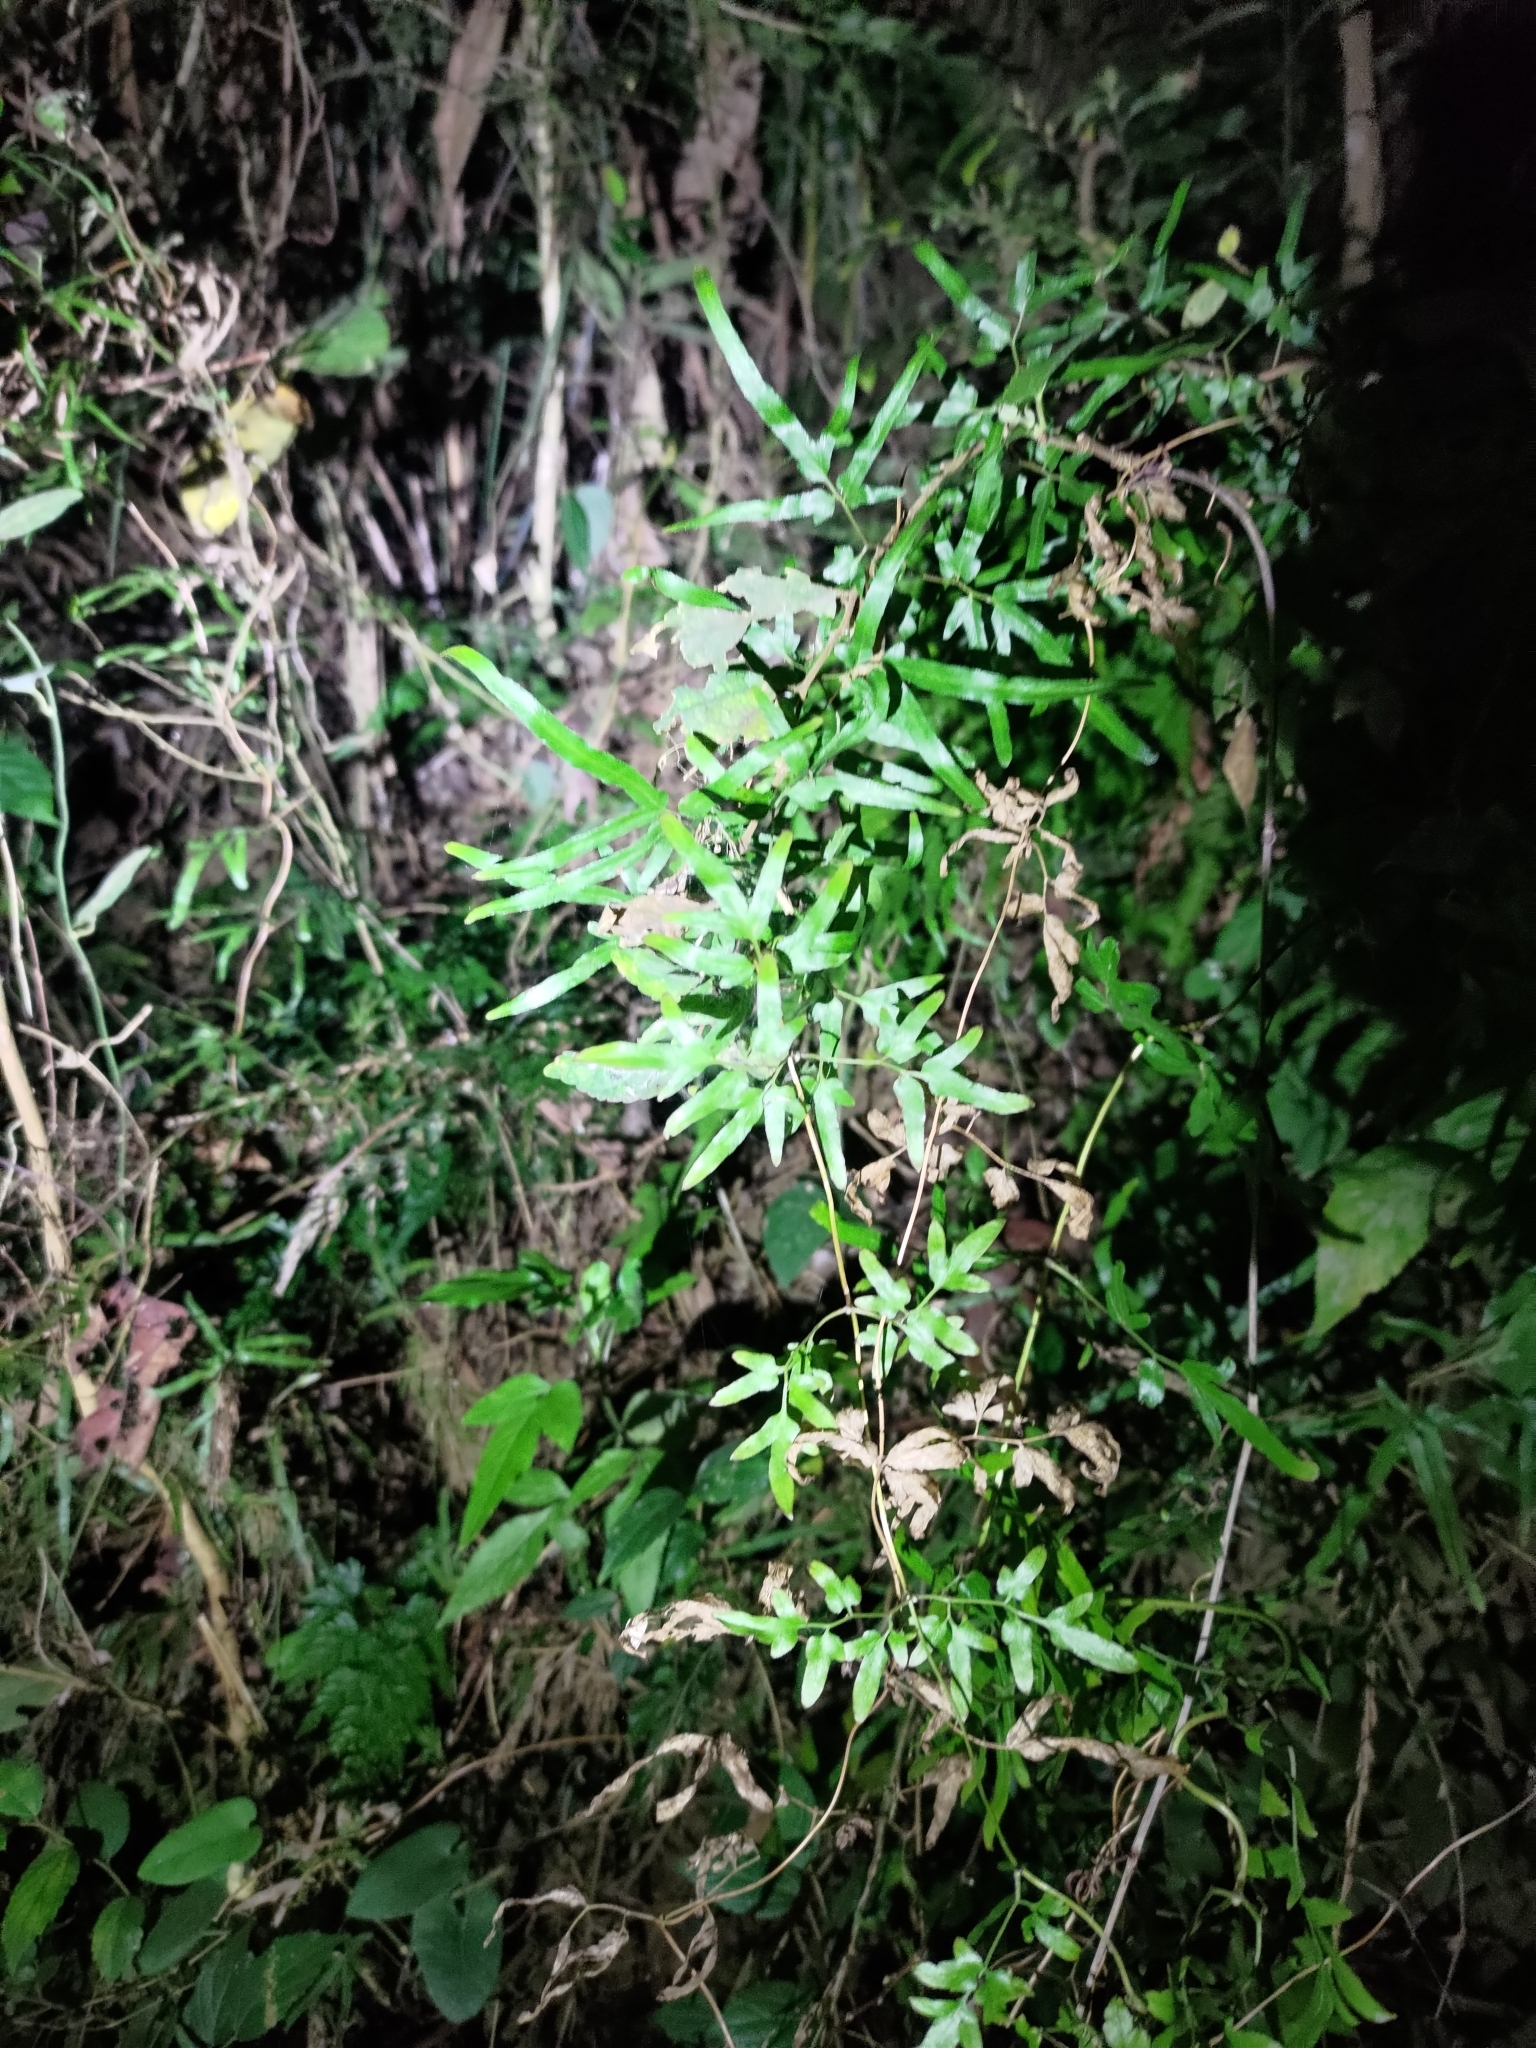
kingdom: Plantae
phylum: Tracheophyta
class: Polypodiopsida
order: Schizaeales
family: Lygodiaceae
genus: Lygodium
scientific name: Lygodium japonicum
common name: Japanese climbing fern
